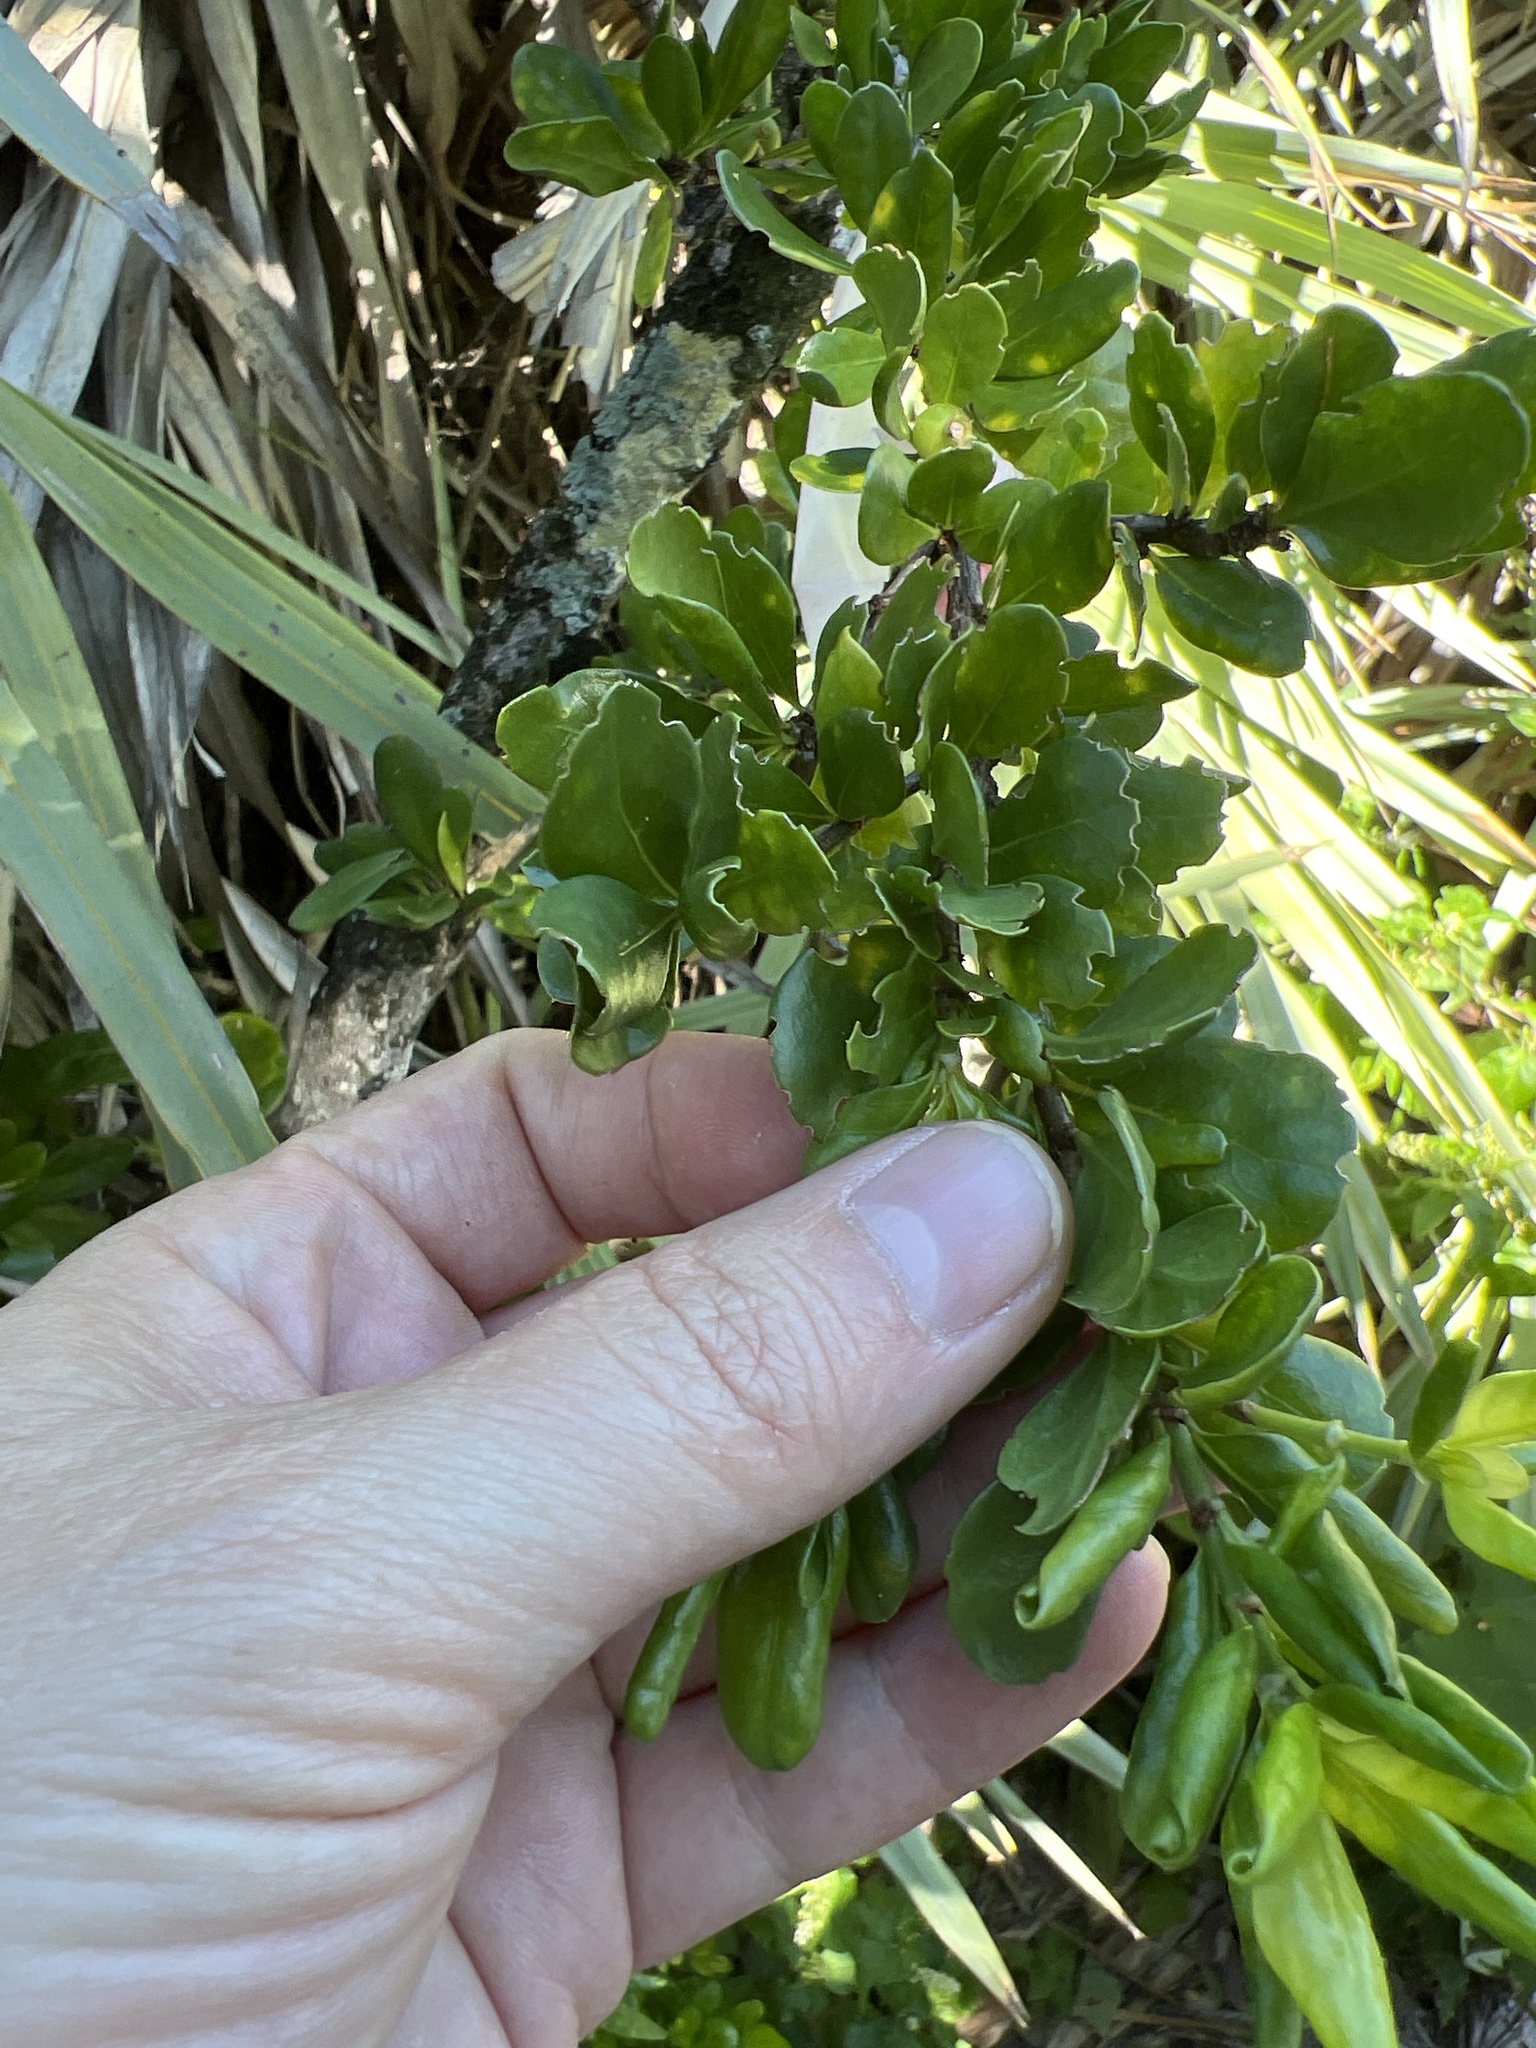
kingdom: Plantae
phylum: Tracheophyta
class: Magnoliopsida
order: Gentianales
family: Rubiaceae
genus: Randia
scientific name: Randia aculeata
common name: Inkberry
